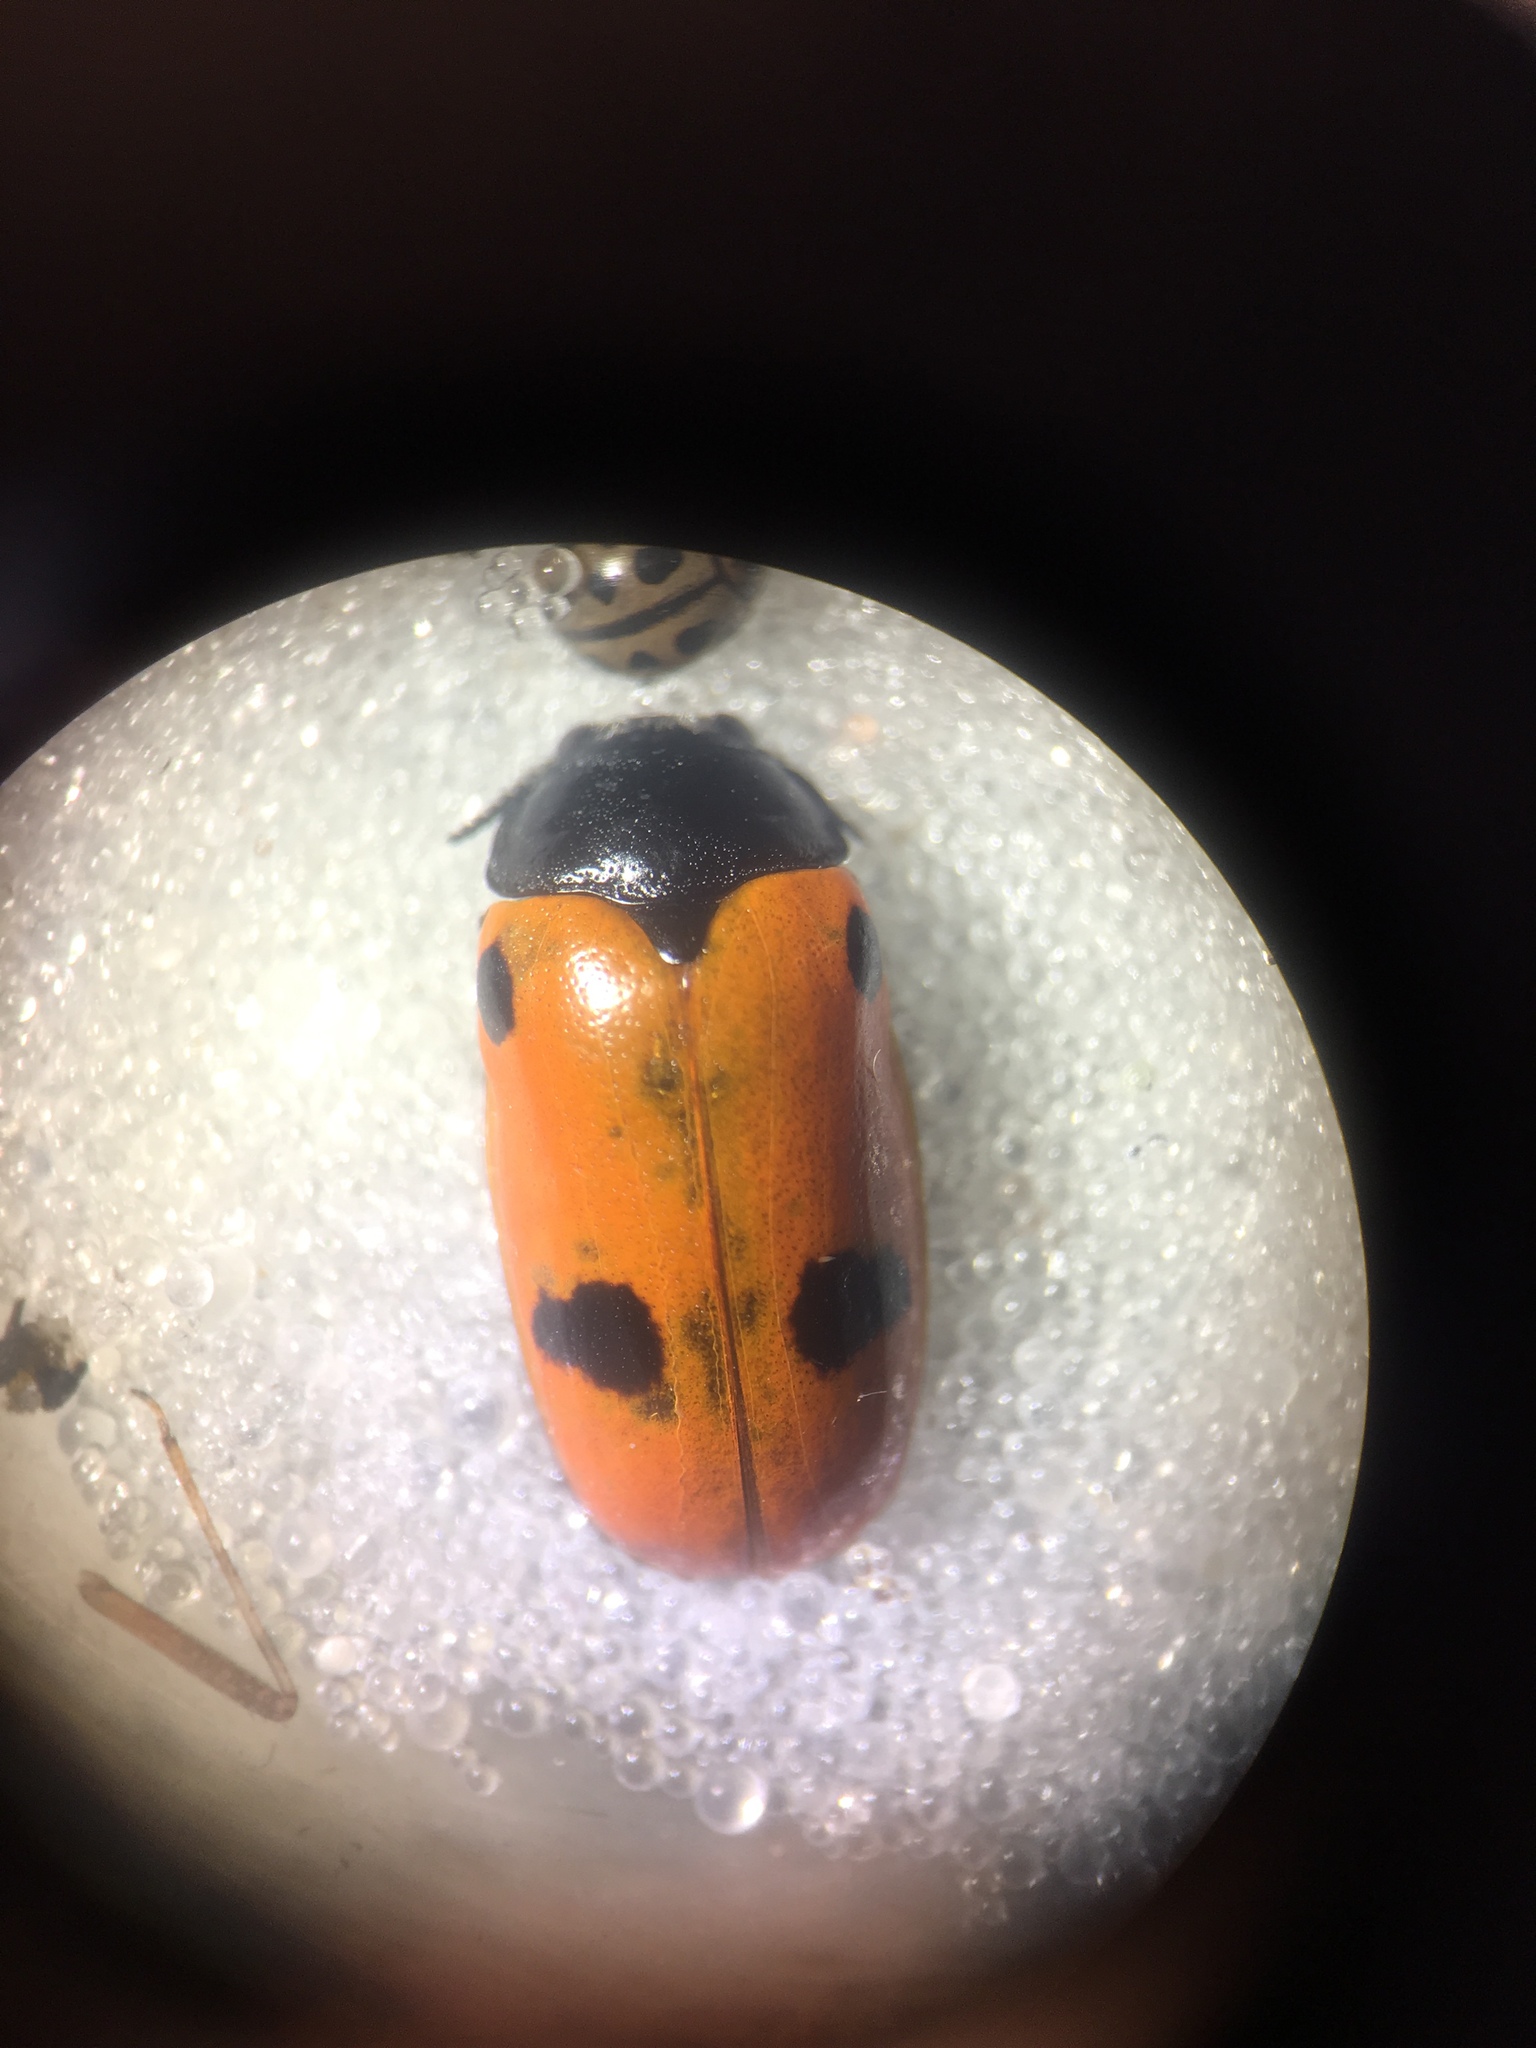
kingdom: Animalia
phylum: Arthropoda
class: Insecta
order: Coleoptera
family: Chrysomelidae
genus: Clytra
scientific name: Clytra quadripunctata
